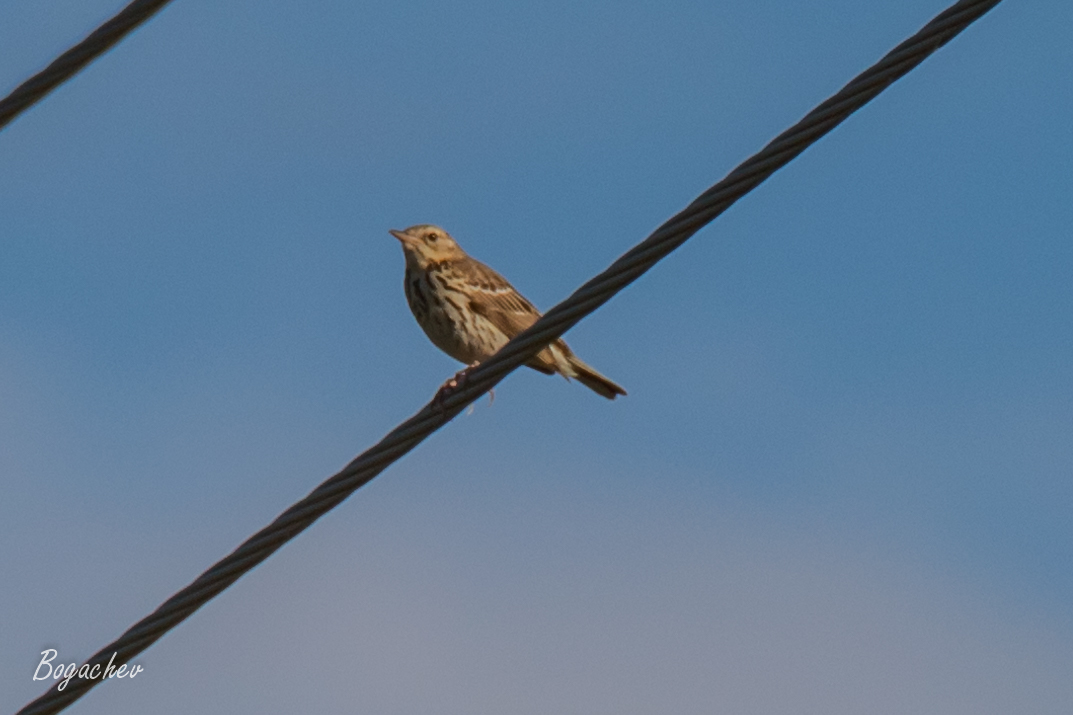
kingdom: Animalia
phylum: Chordata
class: Aves
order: Passeriformes
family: Motacillidae
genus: Anthus
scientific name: Anthus trivialis
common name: Tree pipit
